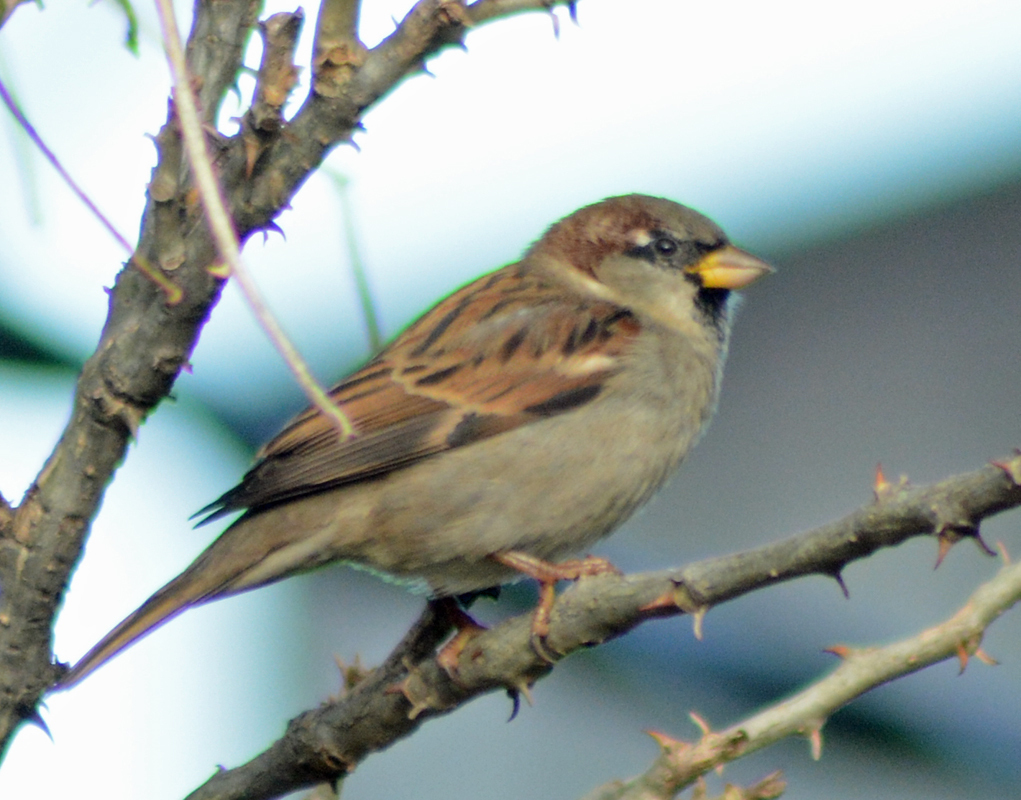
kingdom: Animalia
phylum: Chordata
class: Aves
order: Passeriformes
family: Passeridae
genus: Passer
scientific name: Passer domesticus
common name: House sparrow
